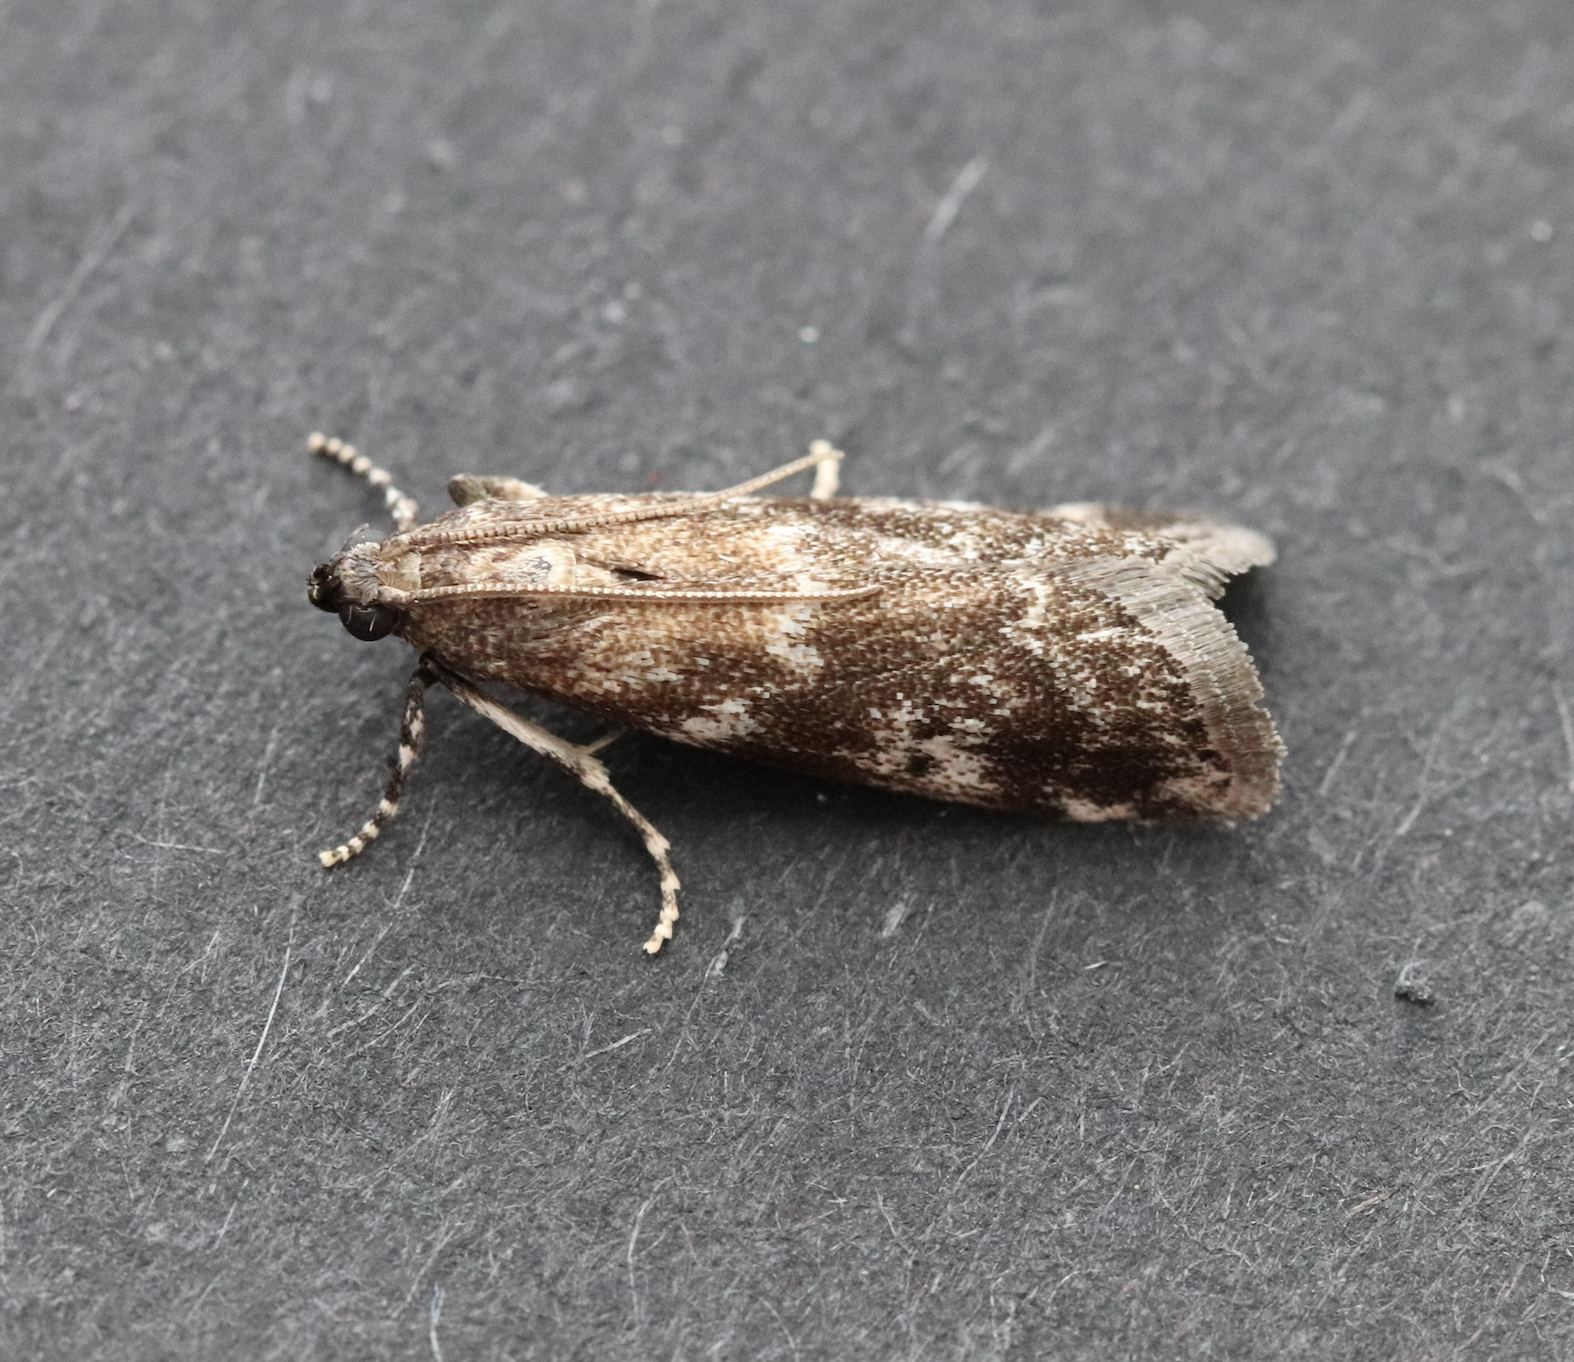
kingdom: Animalia
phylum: Arthropoda
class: Insecta
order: Lepidoptera
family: Pyralidae
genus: Assara
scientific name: Assara terebrella
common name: Dark spruce knot-horn
